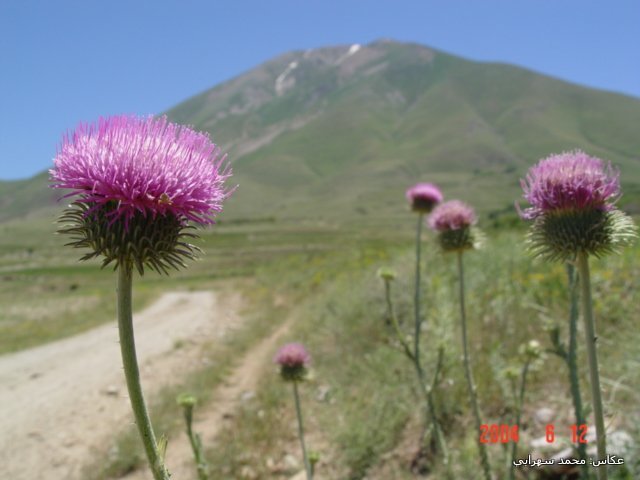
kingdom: Plantae
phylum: Tracheophyta
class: Magnoliopsida
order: Asterales
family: Asteraceae
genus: Carduus
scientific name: Carduus nutans
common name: Musk thistle
